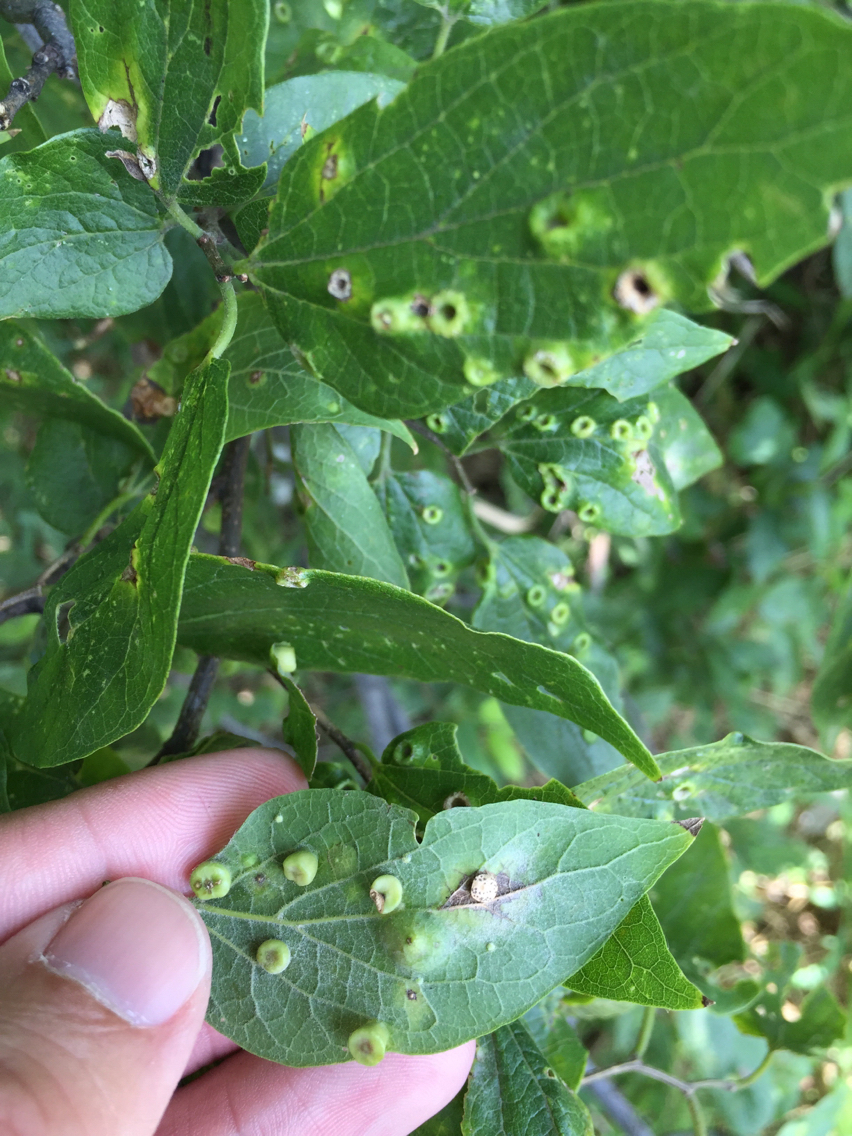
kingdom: Animalia
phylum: Arthropoda
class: Insecta
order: Hemiptera
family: Aphalaridae
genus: Pachypsylla
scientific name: Pachypsylla celtidismamma
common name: Hackberry nipplegall psyllid
